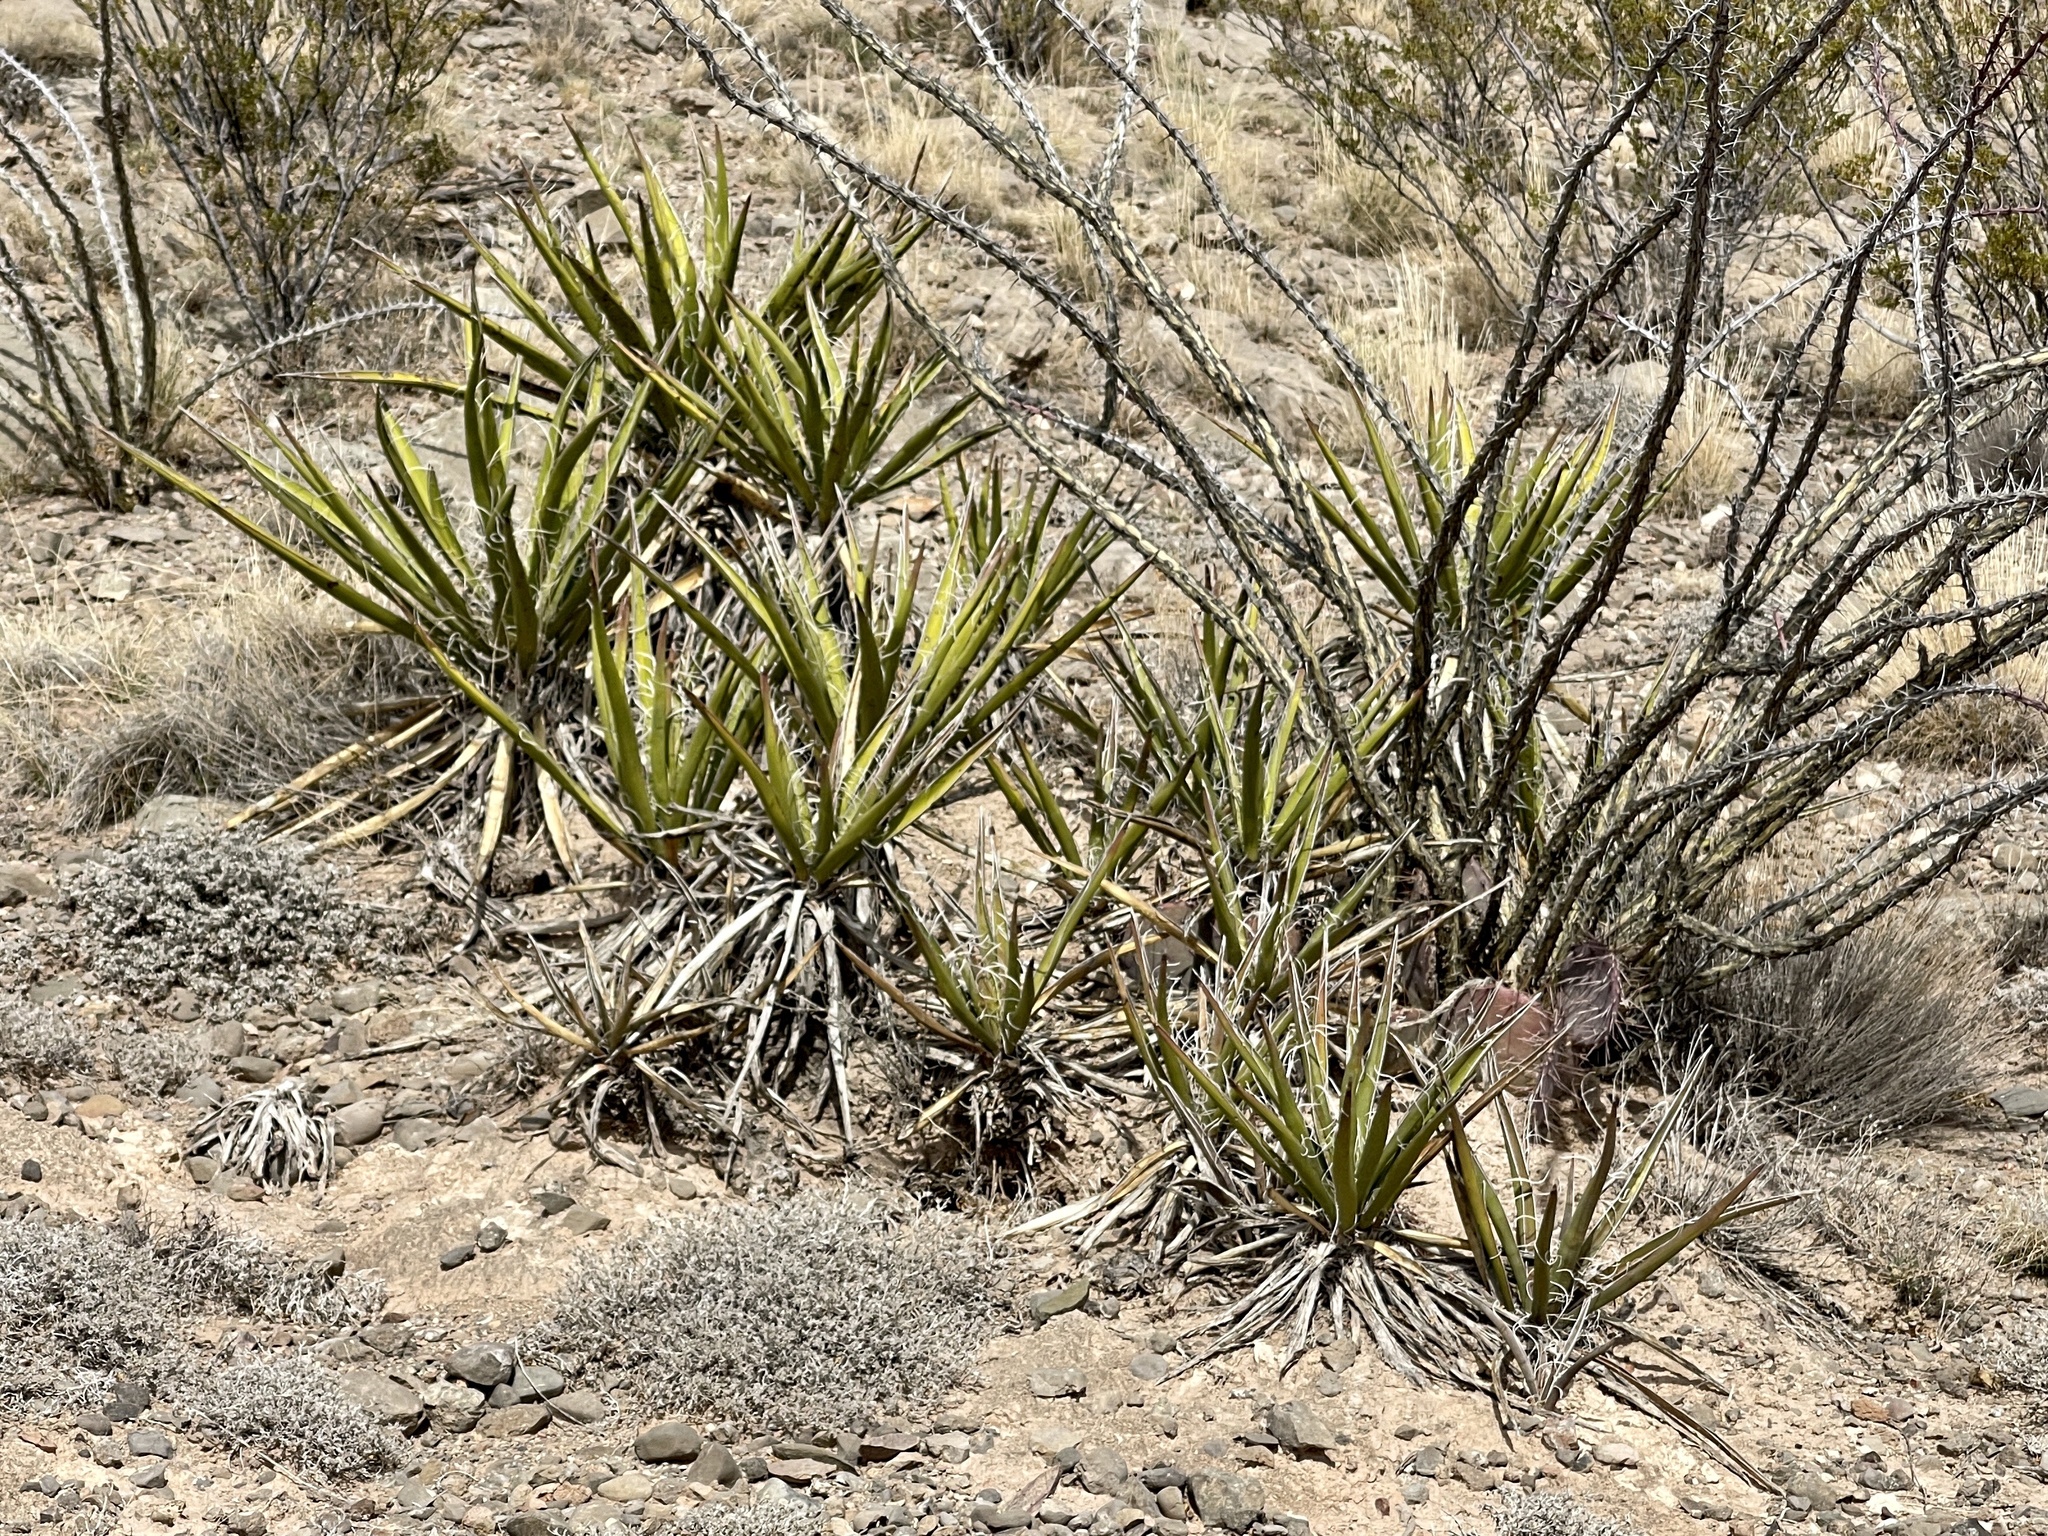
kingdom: Plantae
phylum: Tracheophyta
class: Liliopsida
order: Asparagales
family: Asparagaceae
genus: Yucca
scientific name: Yucca baccata
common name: Banana yucca
